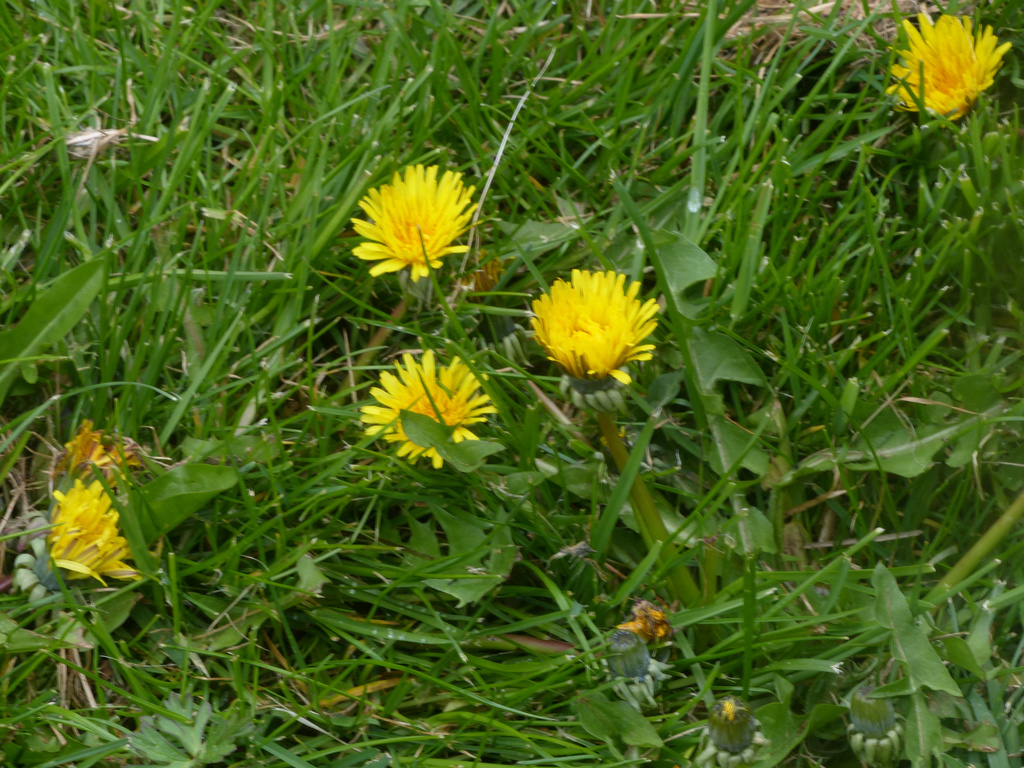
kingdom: Plantae
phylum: Tracheophyta
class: Magnoliopsida
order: Asterales
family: Asteraceae
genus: Taraxacum
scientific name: Taraxacum officinale
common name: Common dandelion
